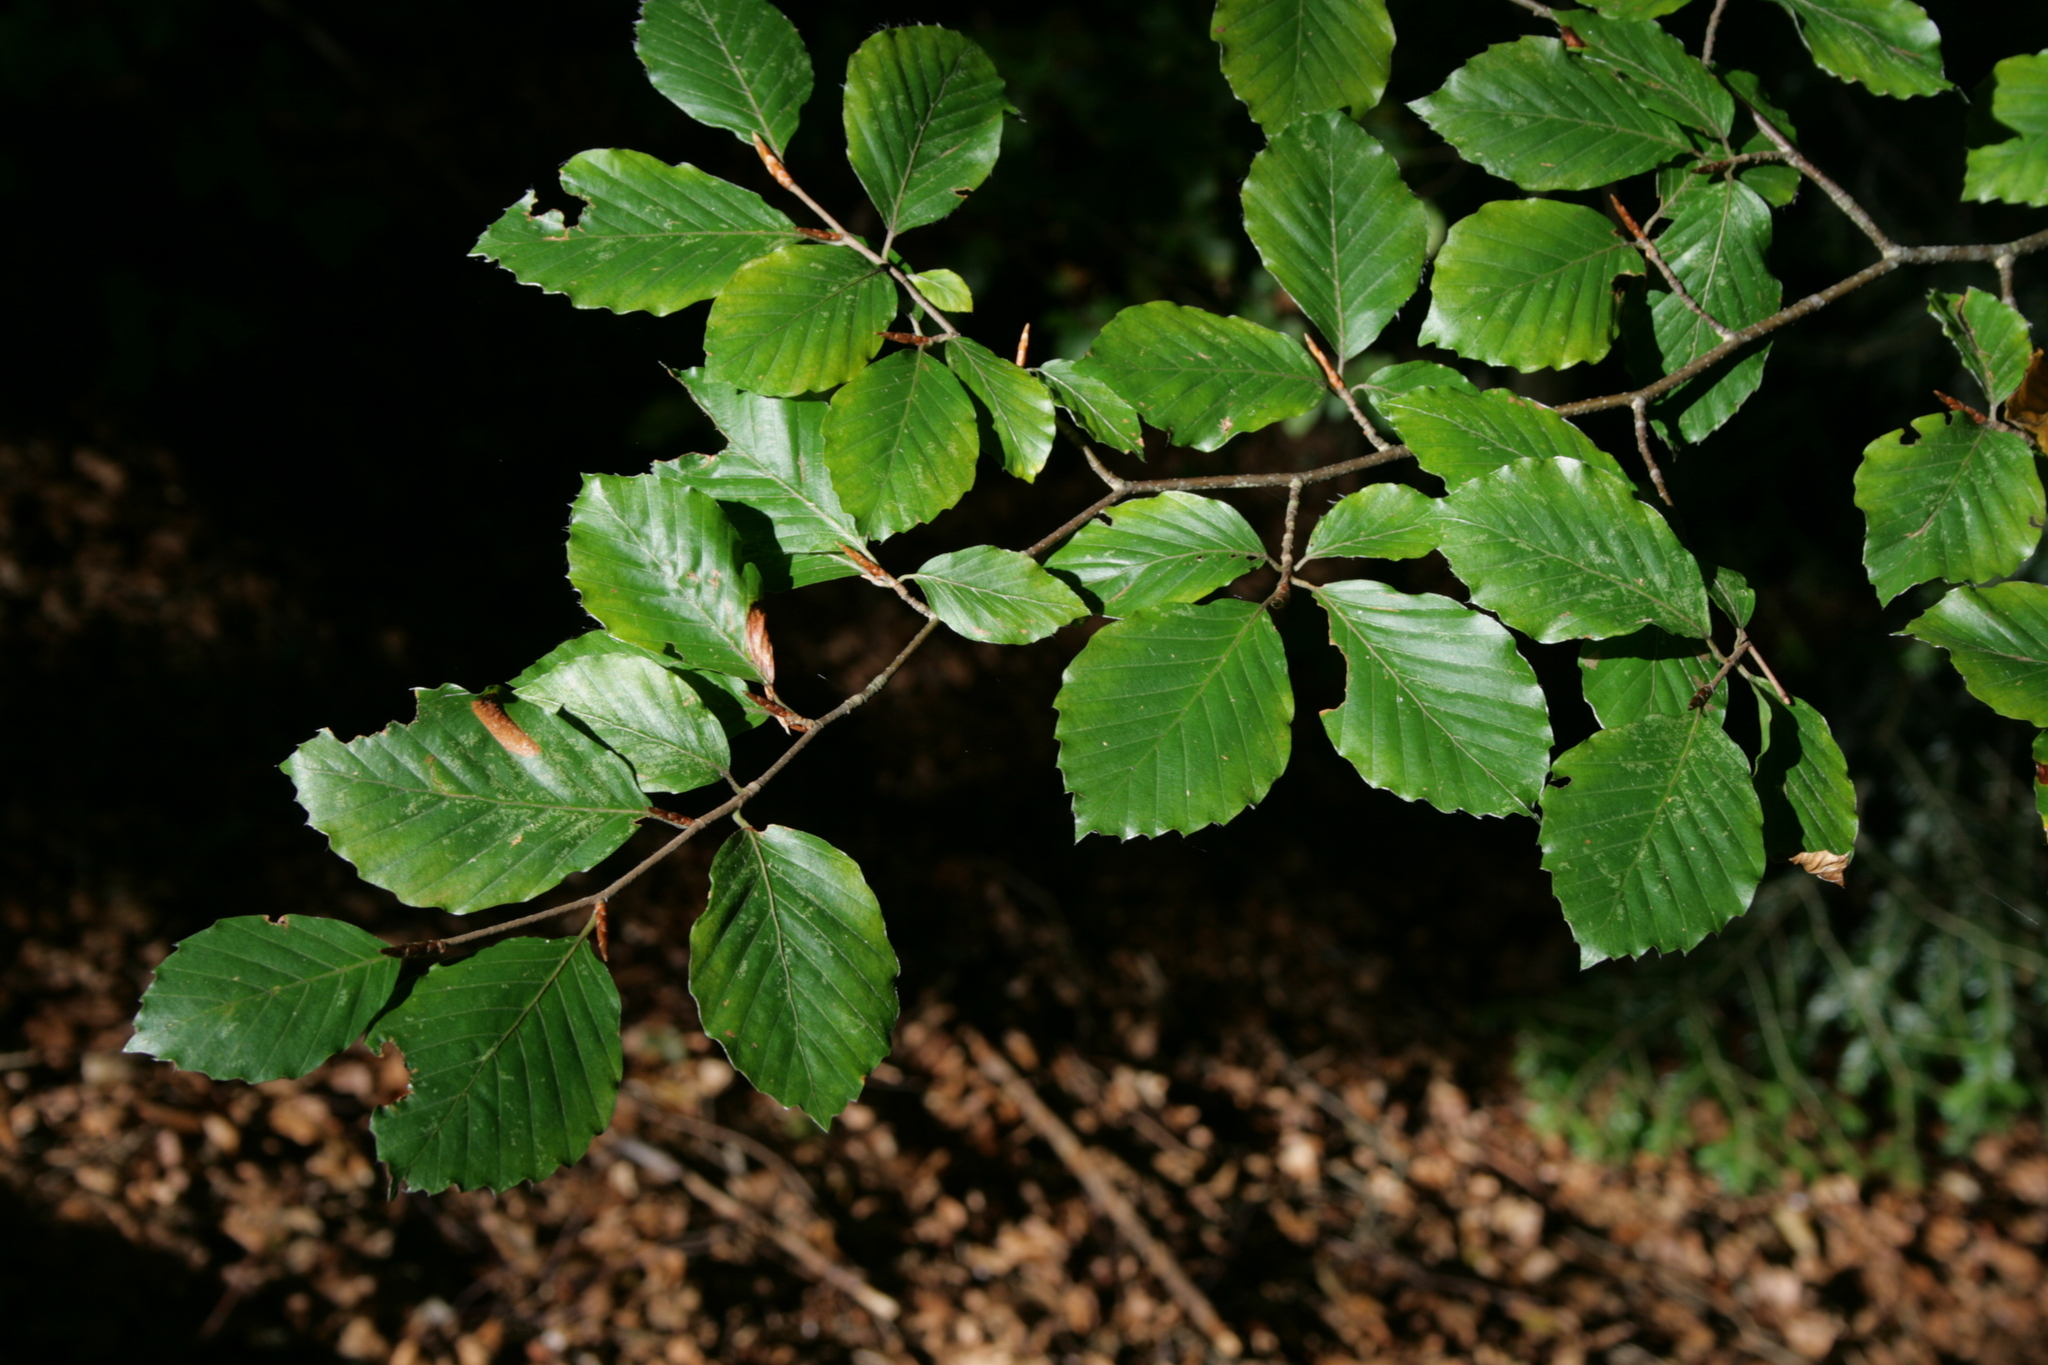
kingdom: Plantae
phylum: Tracheophyta
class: Magnoliopsida
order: Fagales
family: Fagaceae
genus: Fagus
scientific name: Fagus sylvatica
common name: Beech
